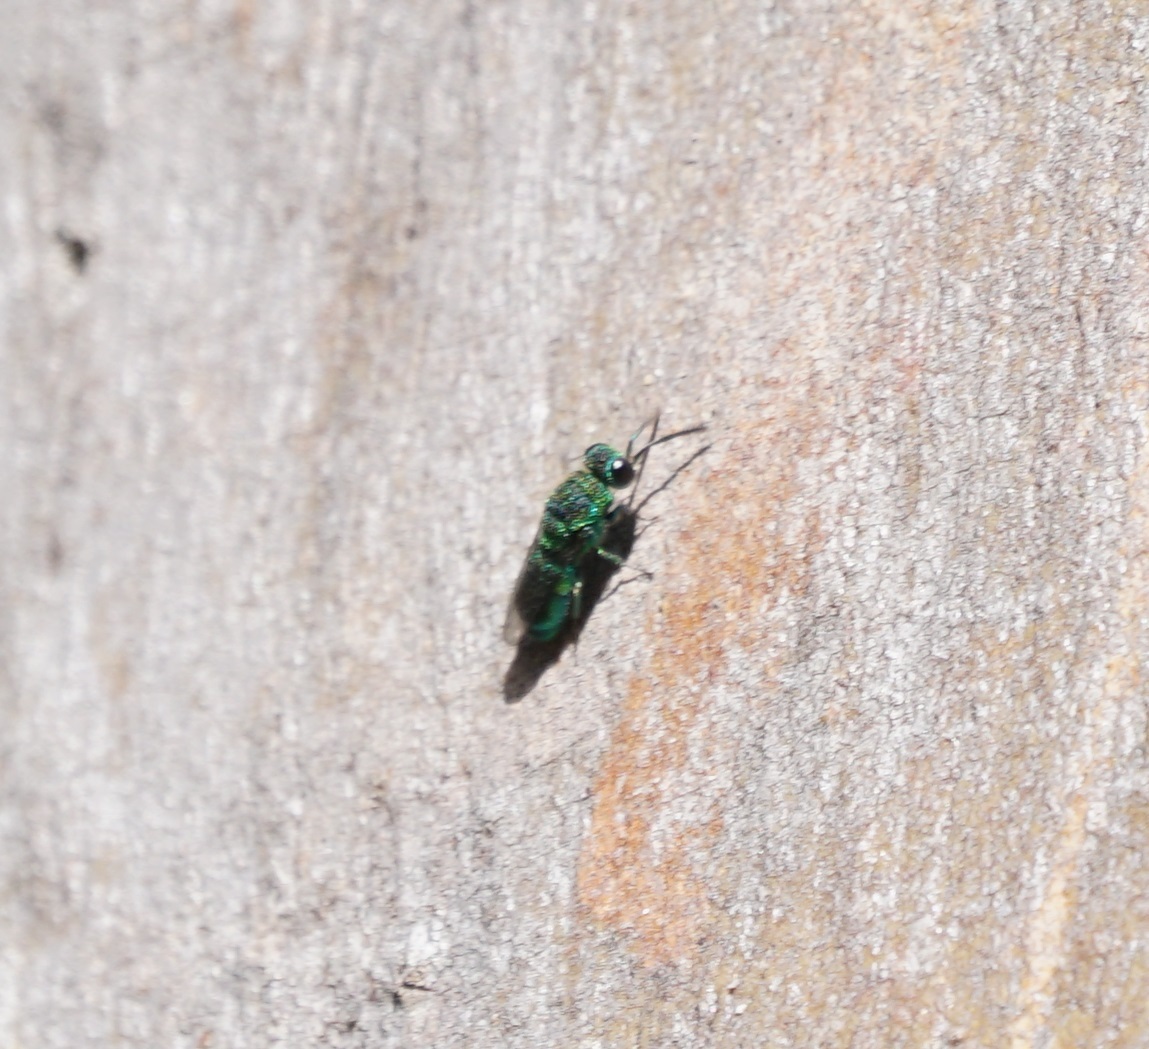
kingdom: Animalia
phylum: Arthropoda
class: Insecta
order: Hymenoptera
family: Chrysididae
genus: Primeuchroeus
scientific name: Primeuchroeus
